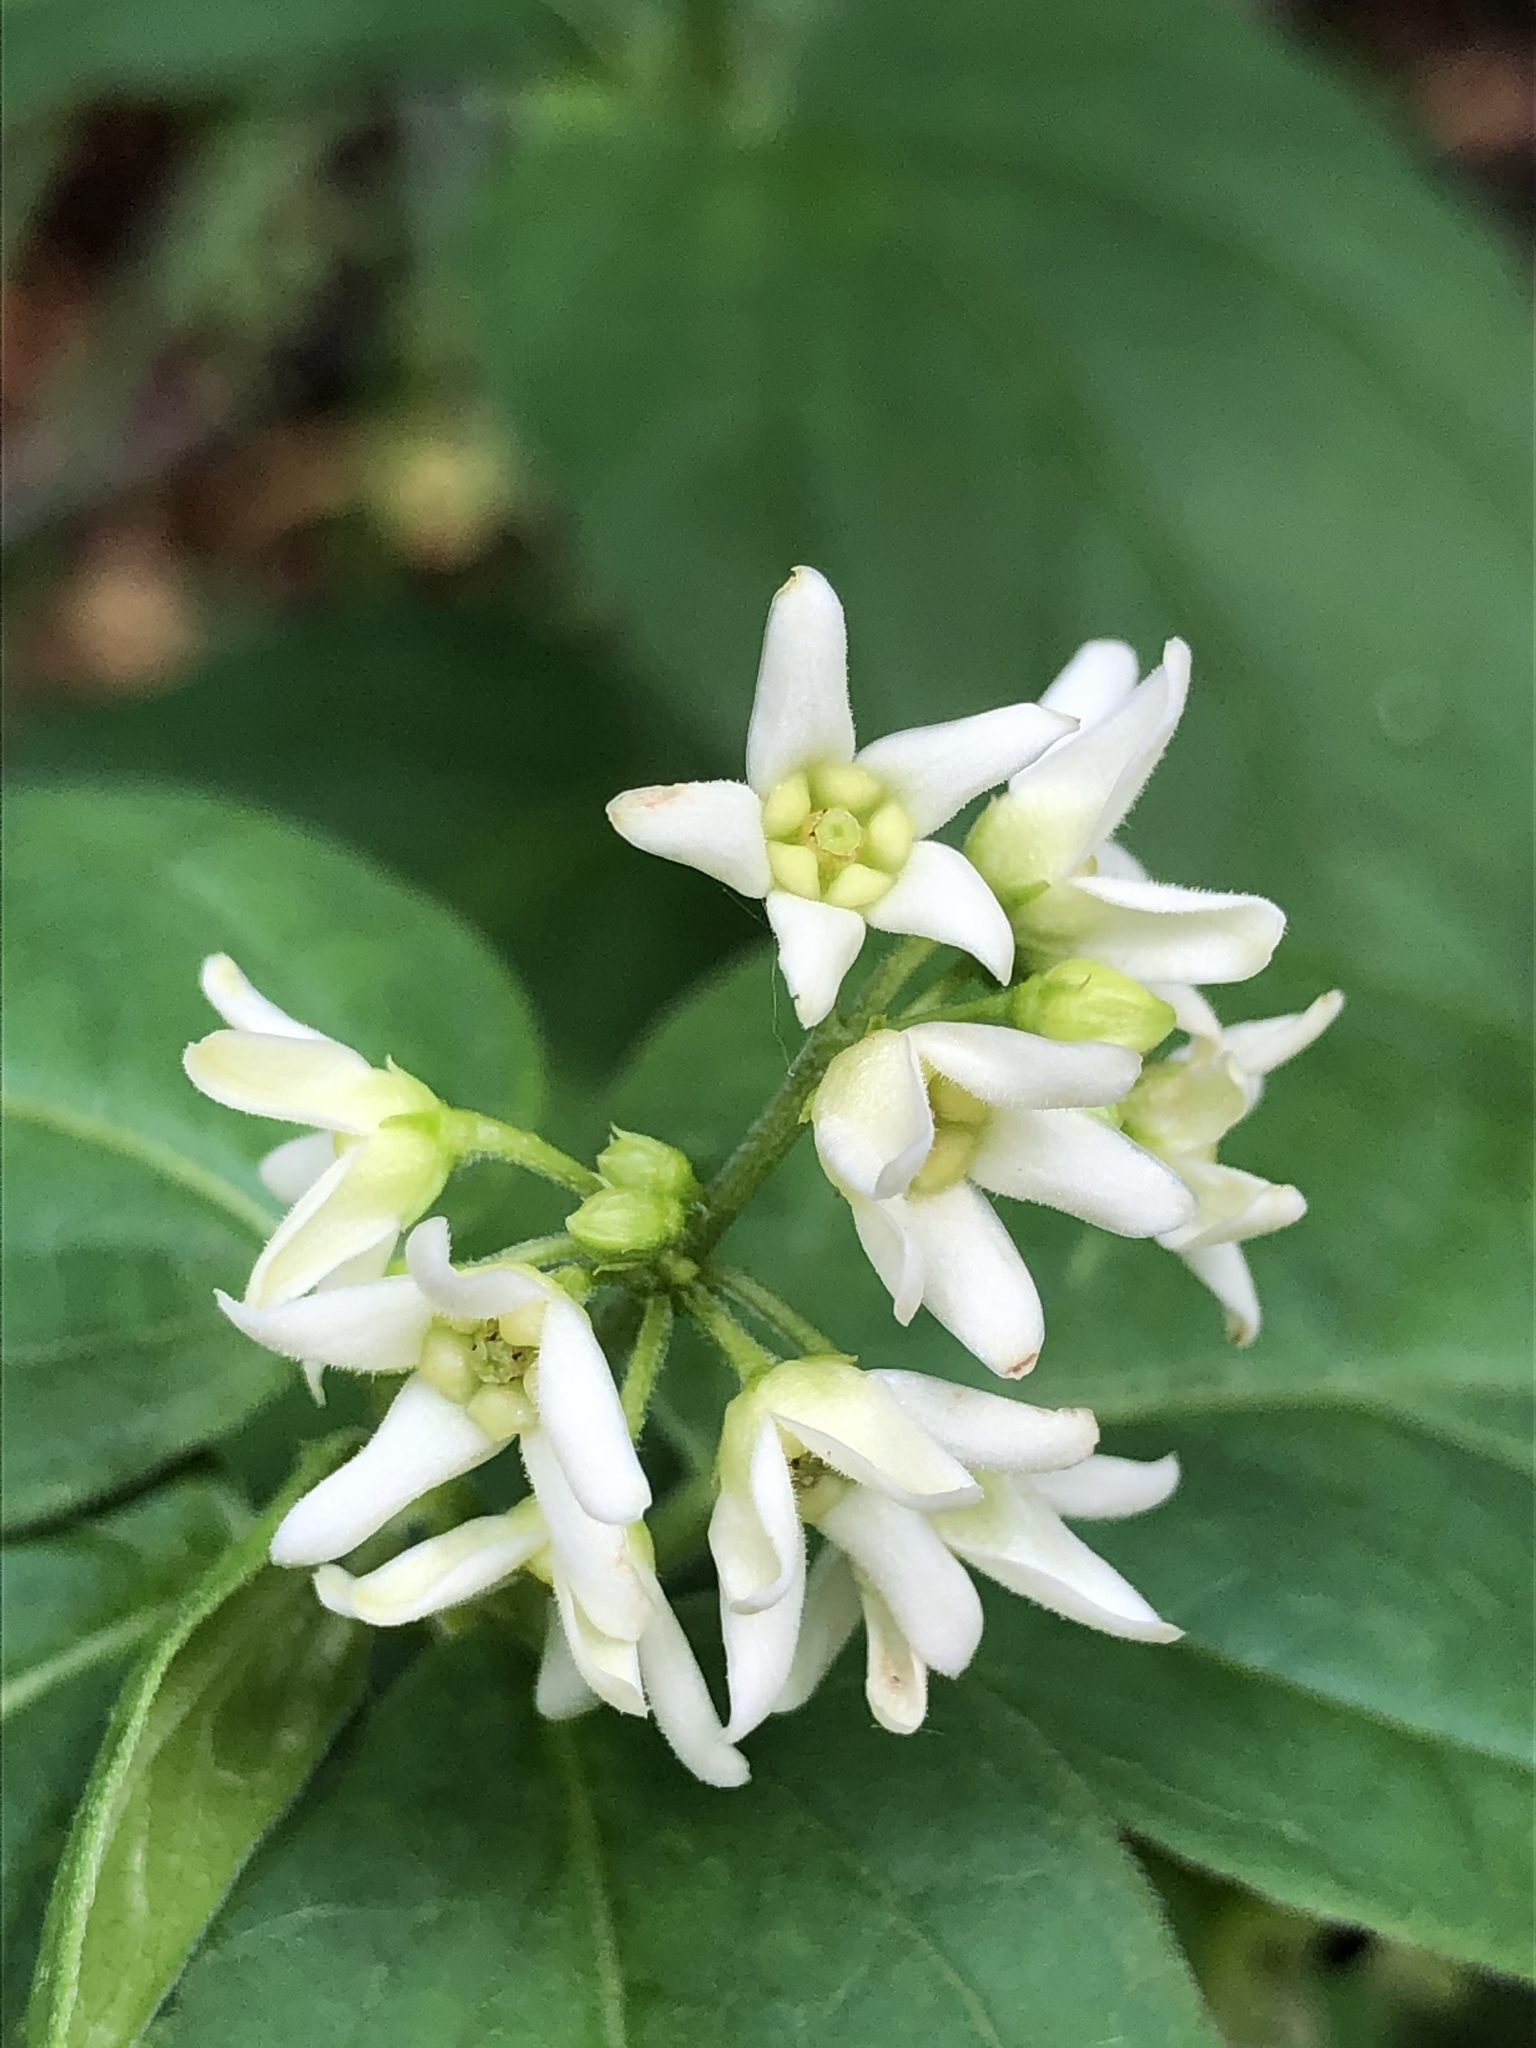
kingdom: Plantae
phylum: Tracheophyta
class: Magnoliopsida
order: Gentianales
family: Apocynaceae
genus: Vincetoxicum
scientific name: Vincetoxicum hirundinaria
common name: White swallowwort
